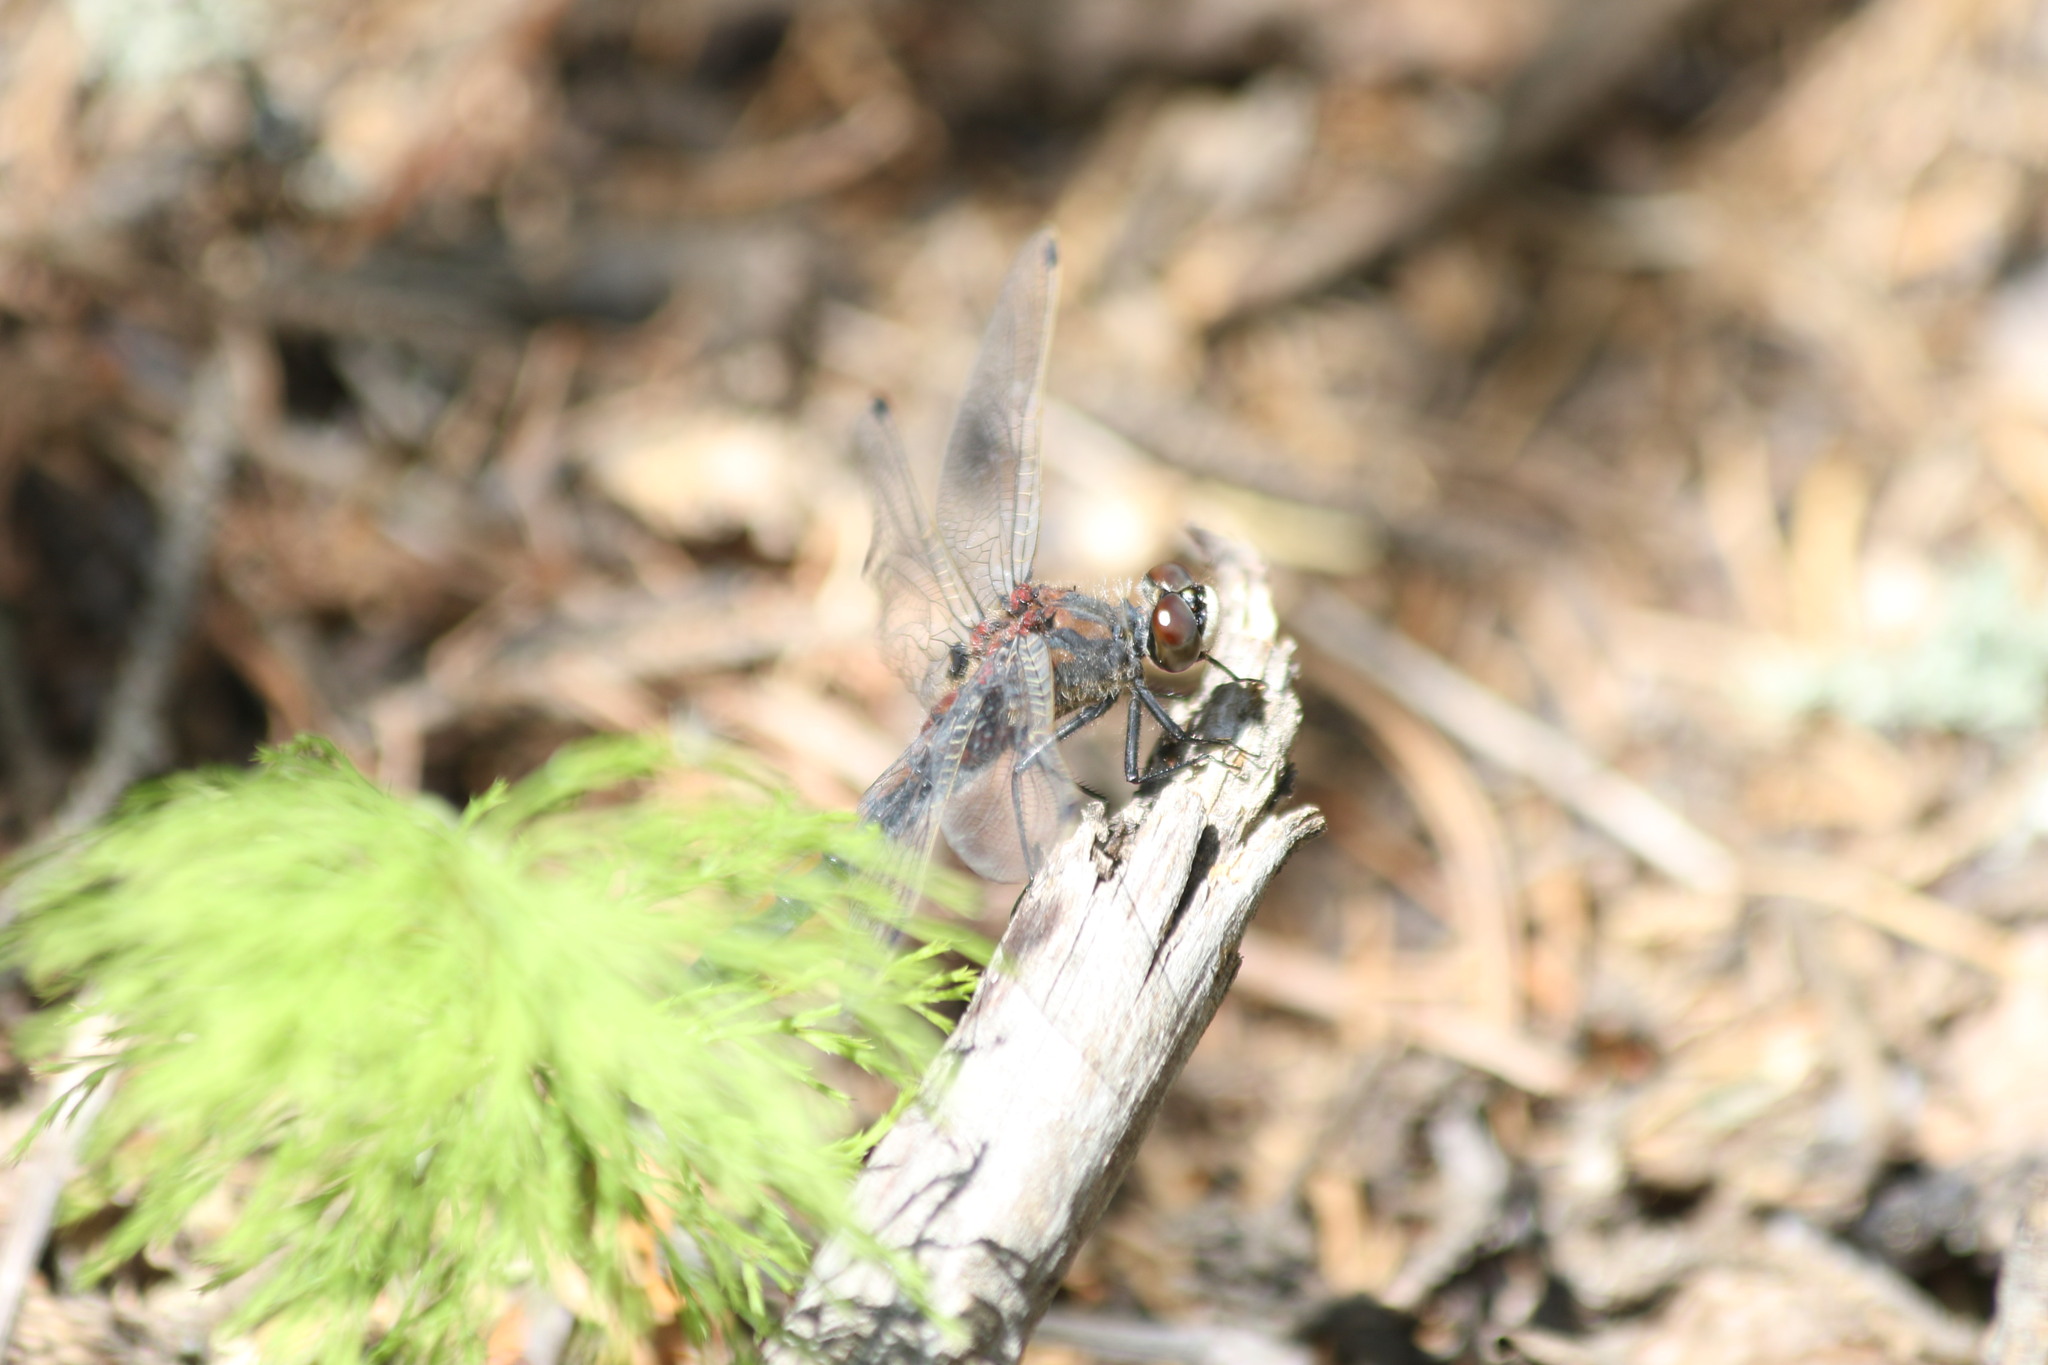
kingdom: Animalia
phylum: Arthropoda
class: Insecta
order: Odonata
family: Libellulidae
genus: Leucorrhinia
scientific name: Leucorrhinia rubicunda
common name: Ruby whiteface
